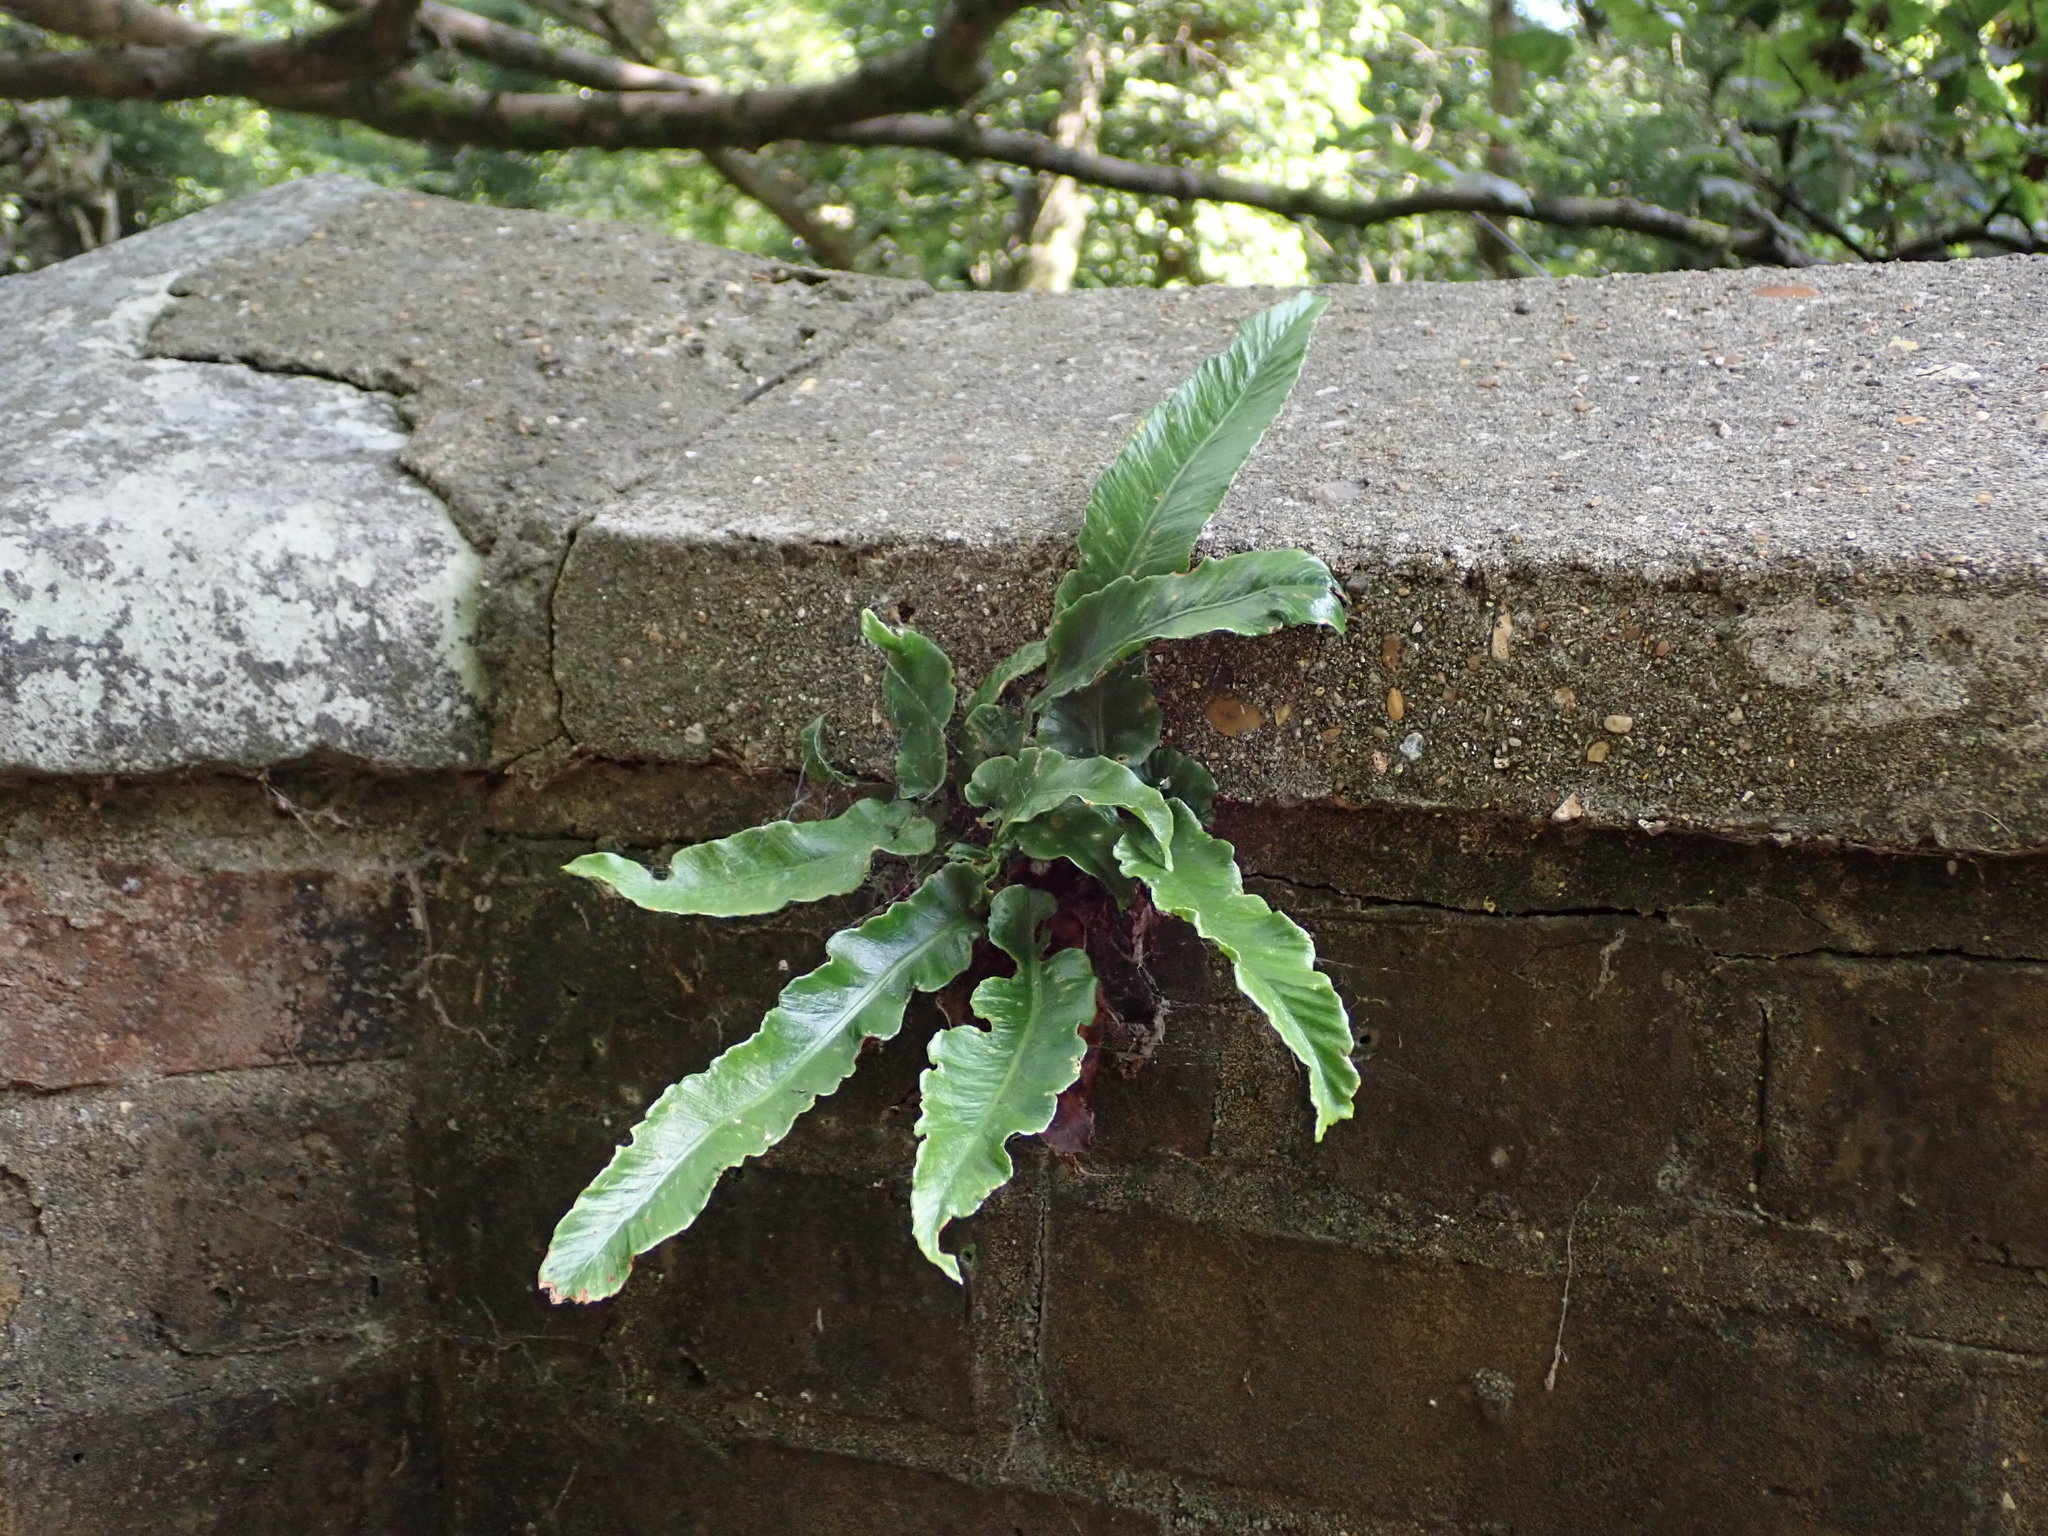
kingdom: Plantae
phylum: Tracheophyta
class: Polypodiopsida
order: Polypodiales
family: Aspleniaceae
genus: Asplenium
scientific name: Asplenium scolopendrium
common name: Hart's-tongue fern
